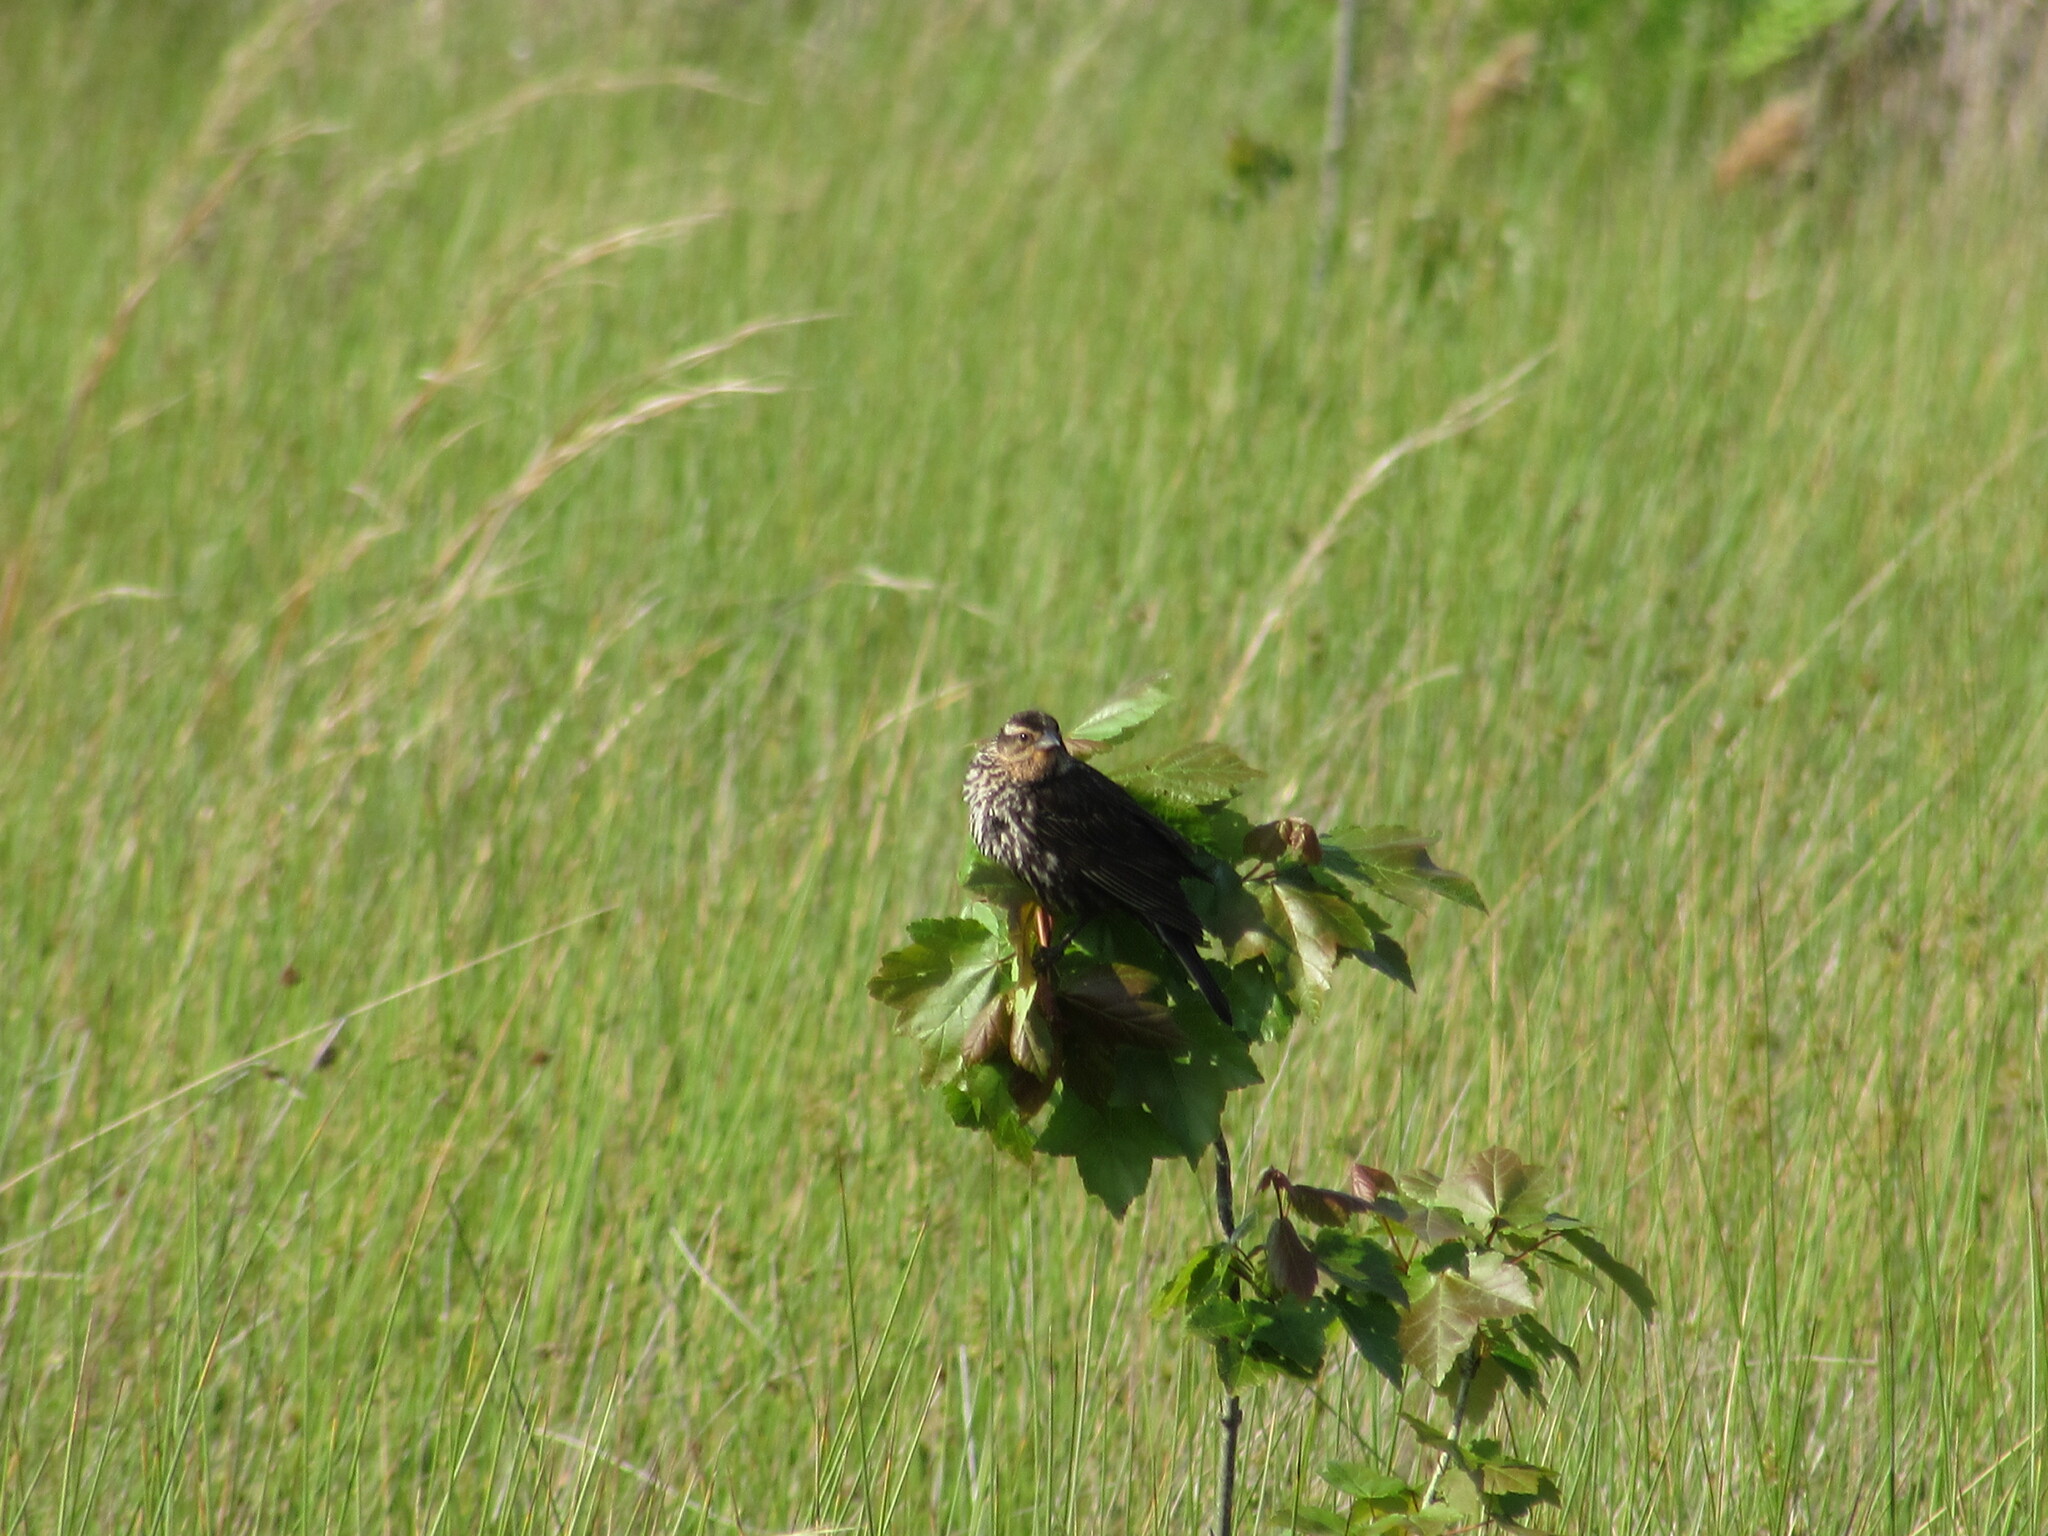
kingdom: Animalia
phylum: Chordata
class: Aves
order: Passeriformes
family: Icteridae
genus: Agelaius
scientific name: Agelaius phoeniceus
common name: Red-winged blackbird
